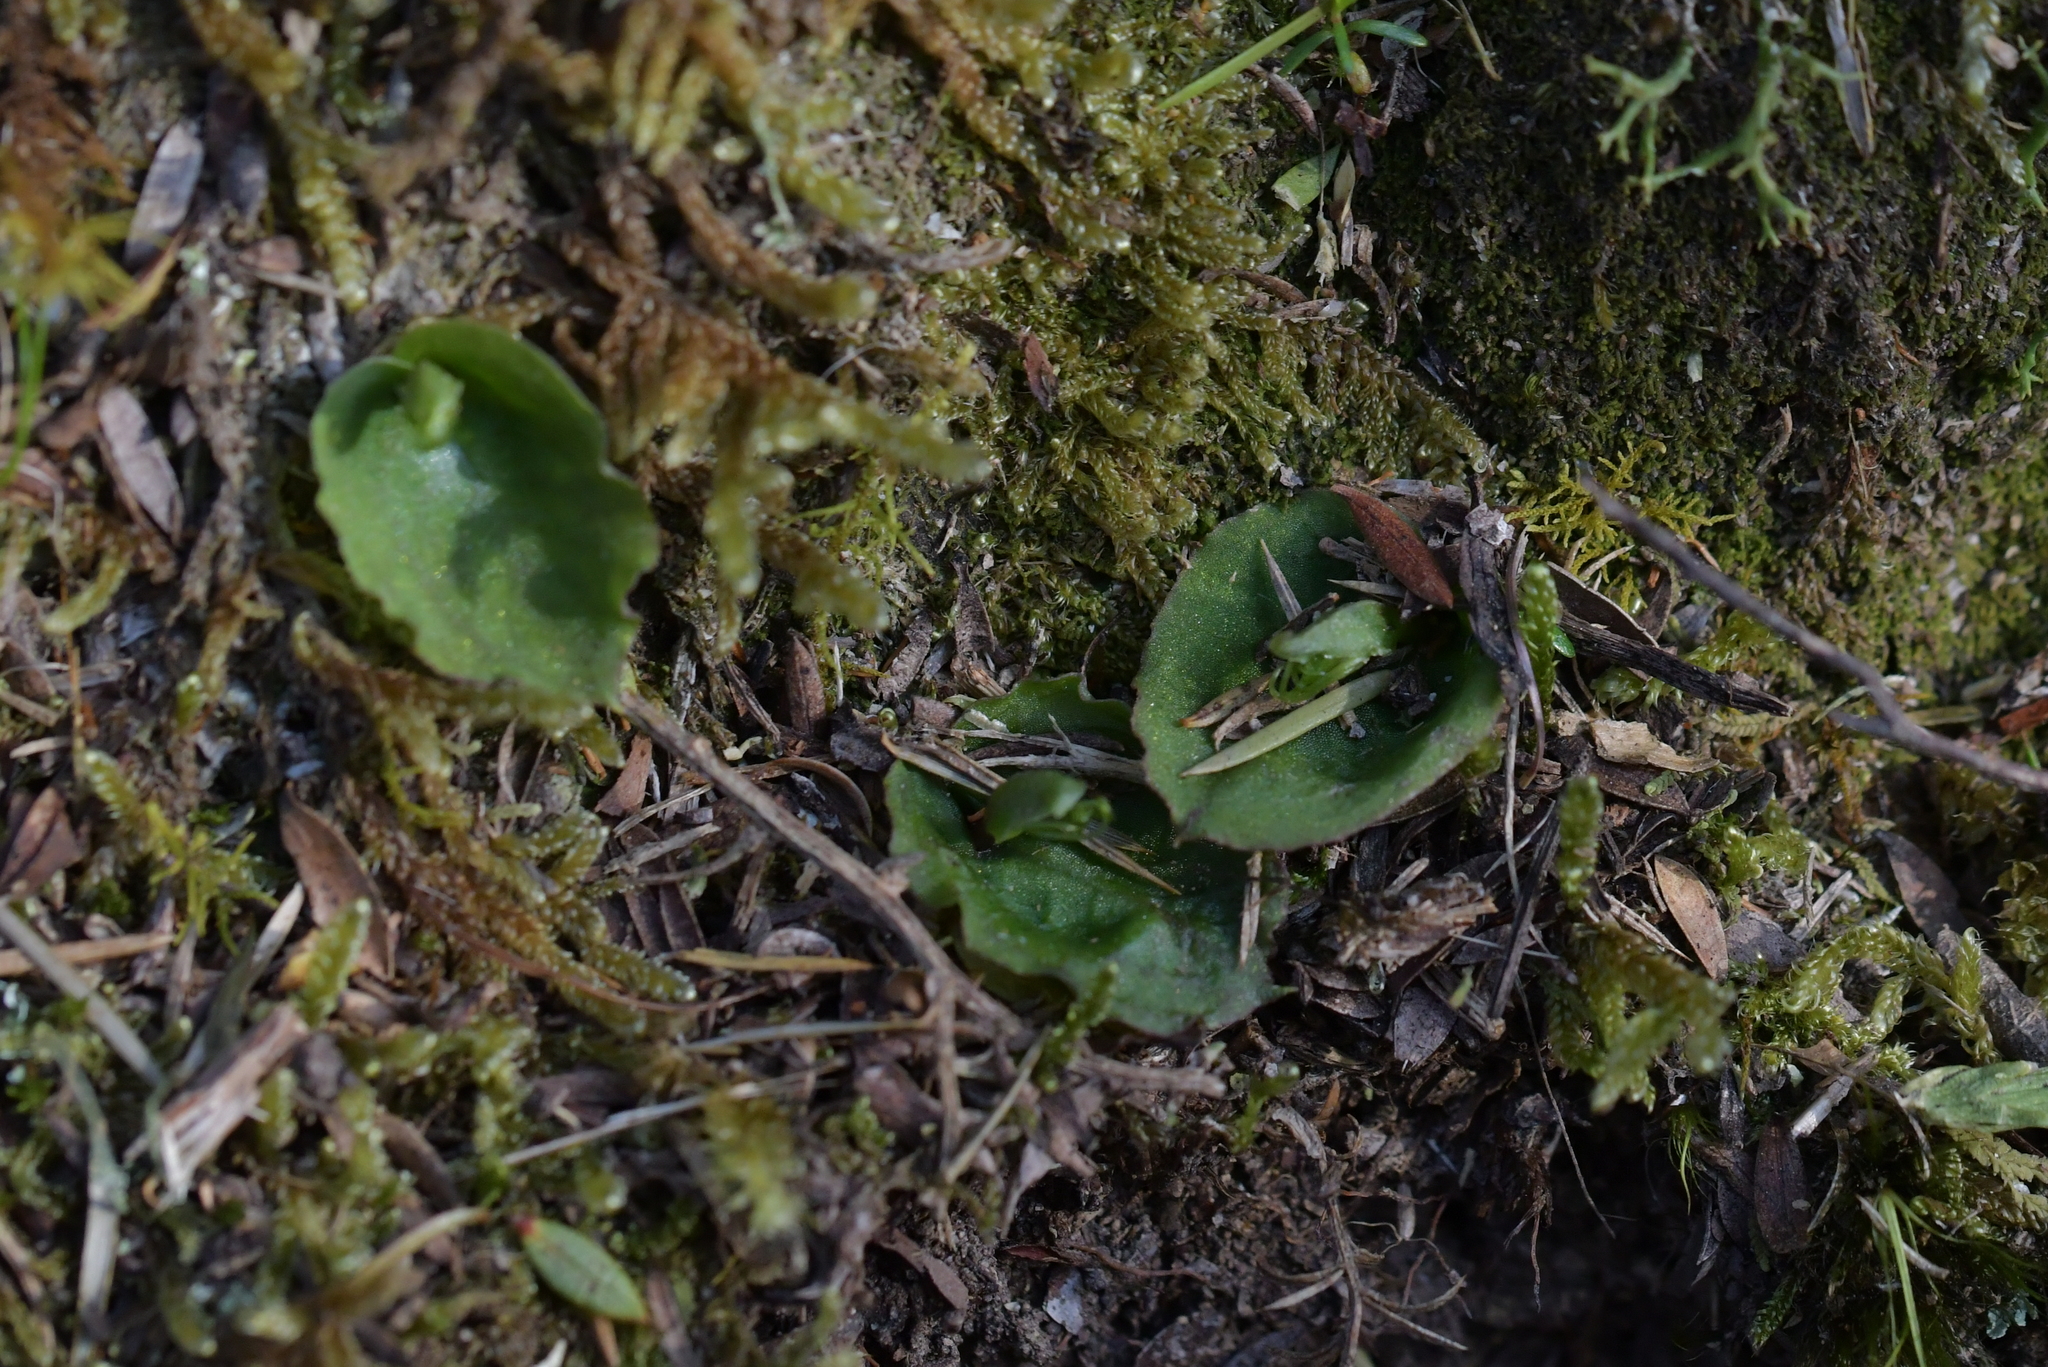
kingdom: Plantae
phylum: Tracheophyta
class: Liliopsida
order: Asparagales
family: Orchidaceae
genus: Corybas
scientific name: Corybas oblongus
